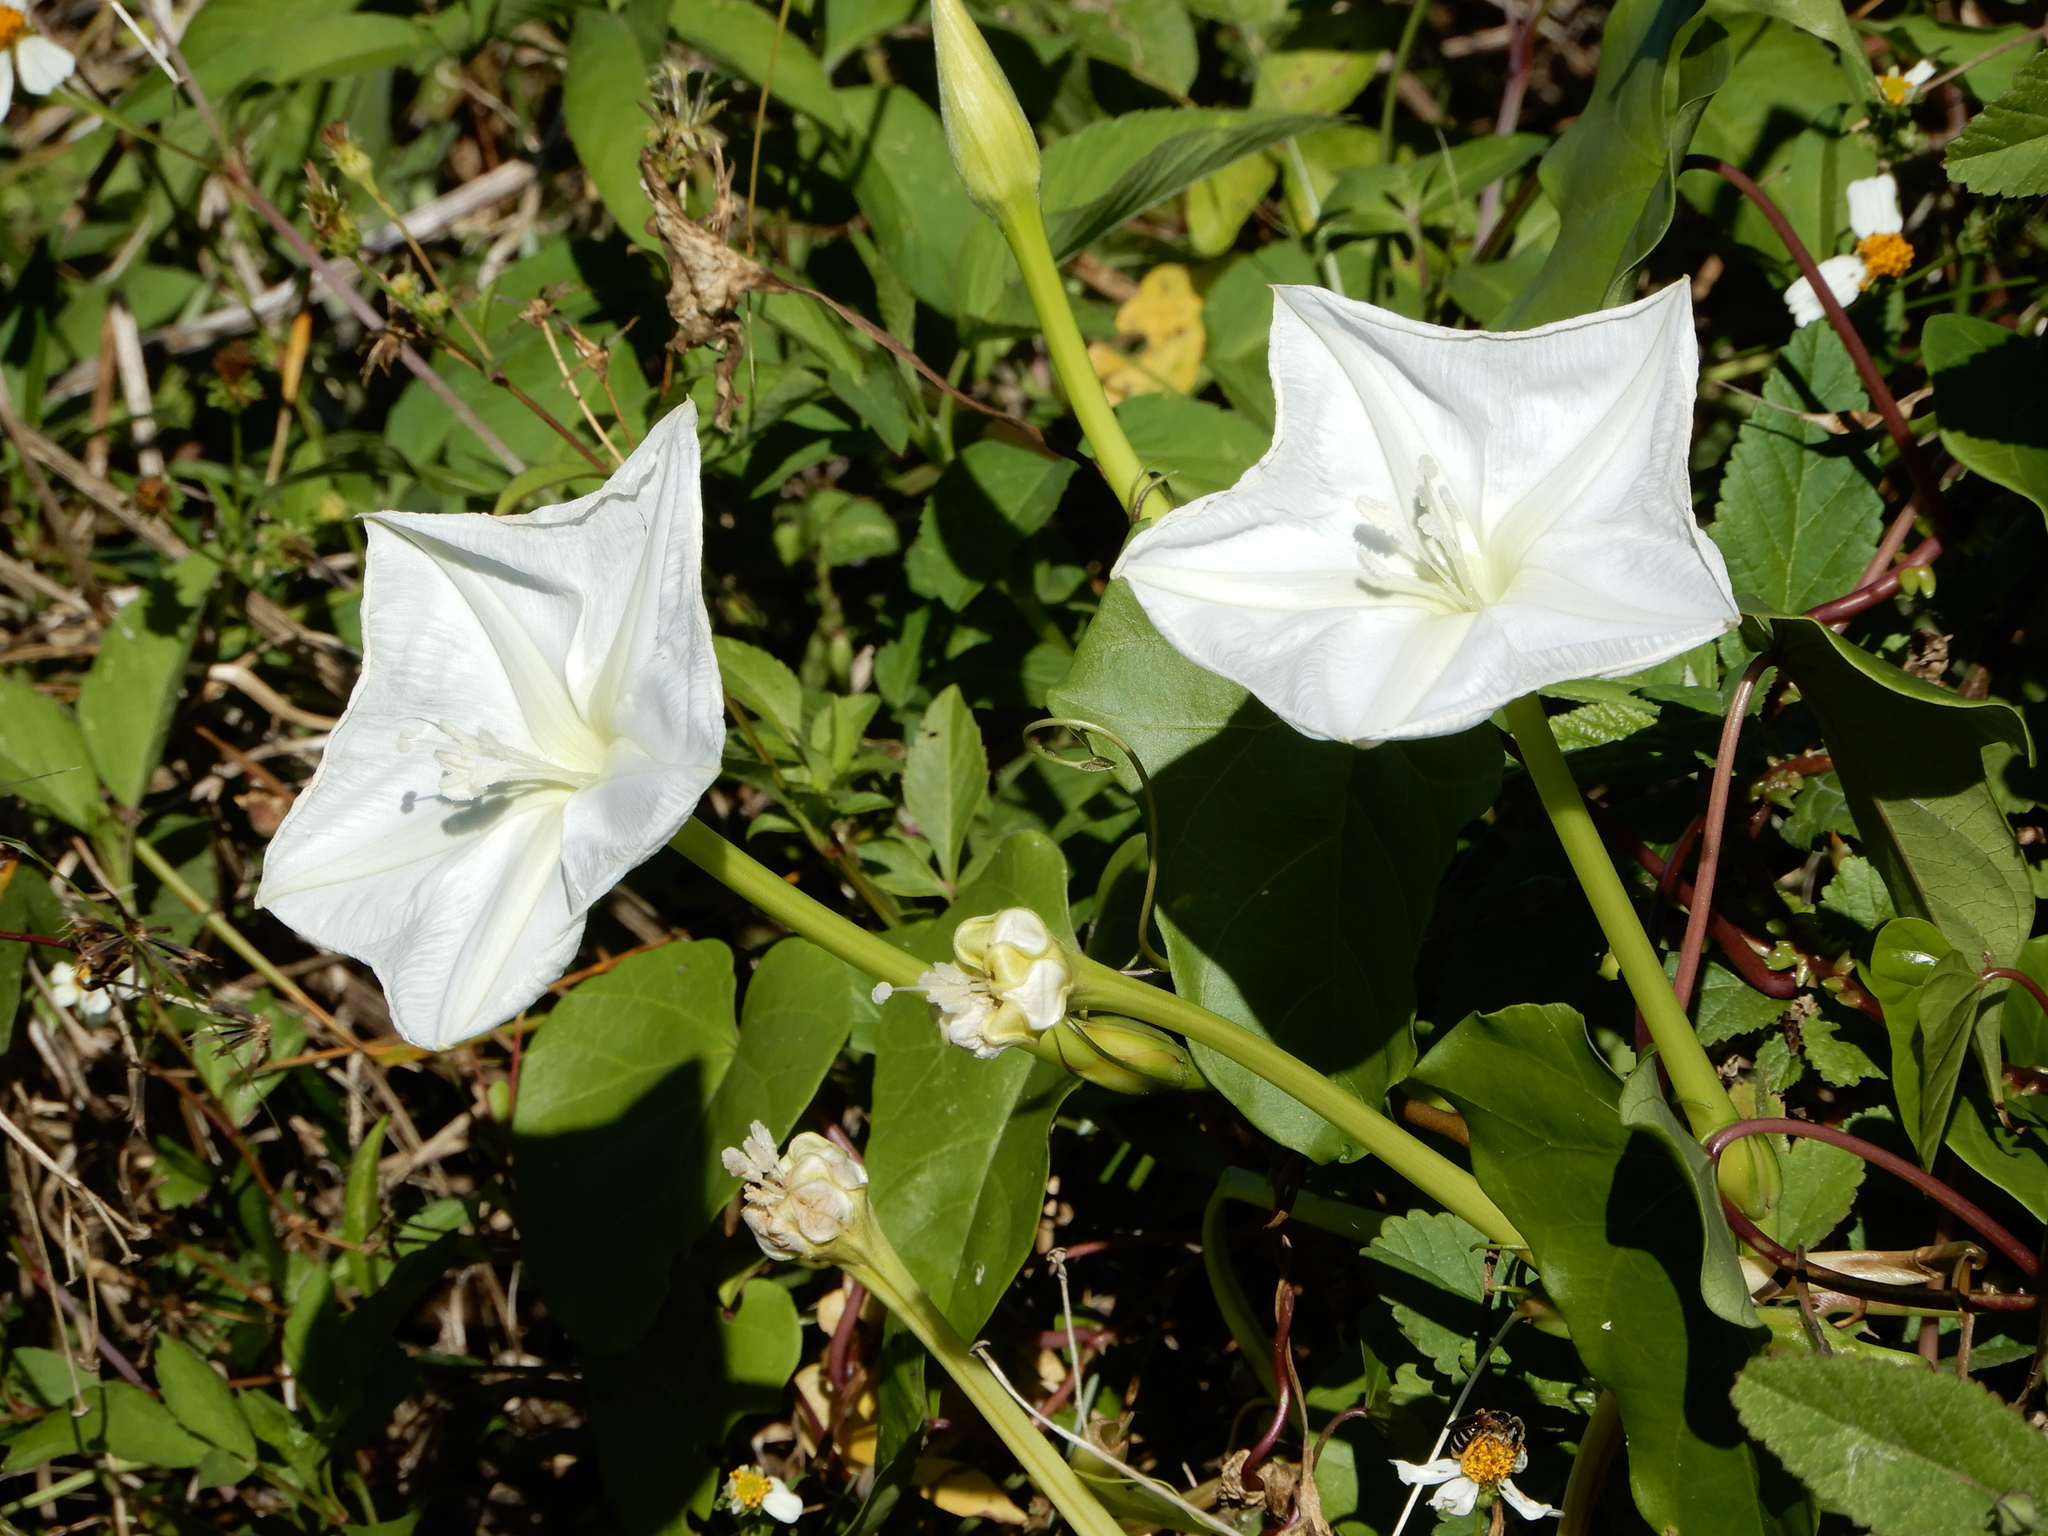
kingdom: Plantae
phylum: Tracheophyta
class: Magnoliopsida
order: Solanales
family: Convolvulaceae
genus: Ipomoea
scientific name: Ipomoea alba
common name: Moonflower
